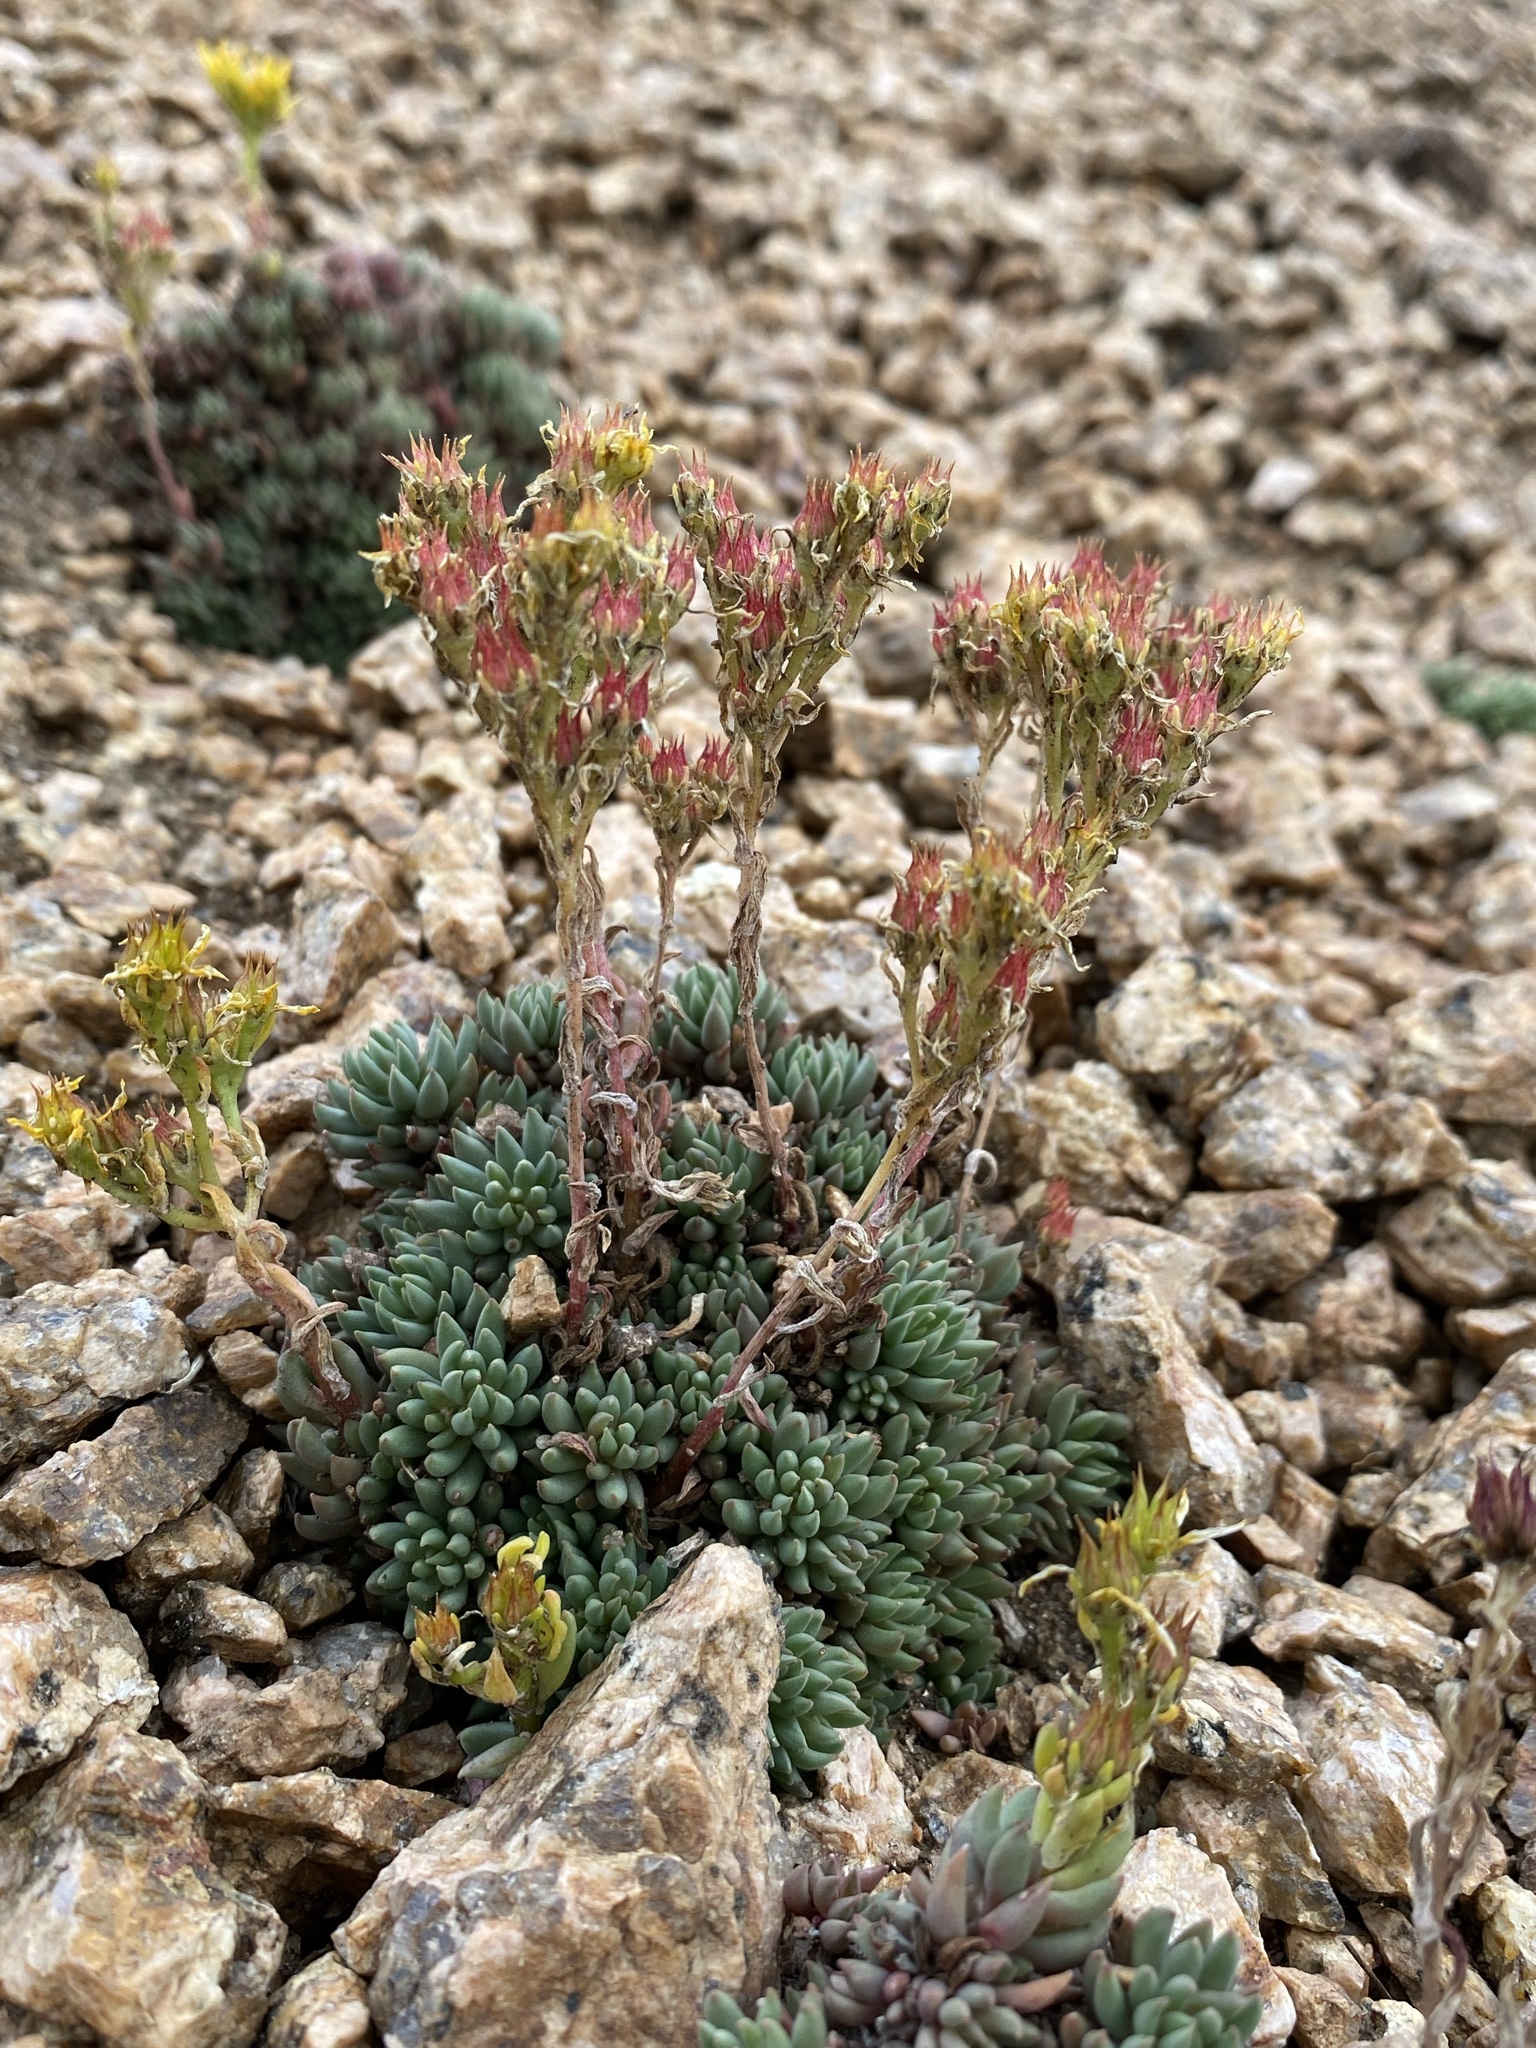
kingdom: Plantae
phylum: Tracheophyta
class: Magnoliopsida
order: Saxifragales
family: Crassulaceae
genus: Sedum
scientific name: Sedum lanceolatum
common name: Common stonecrop
